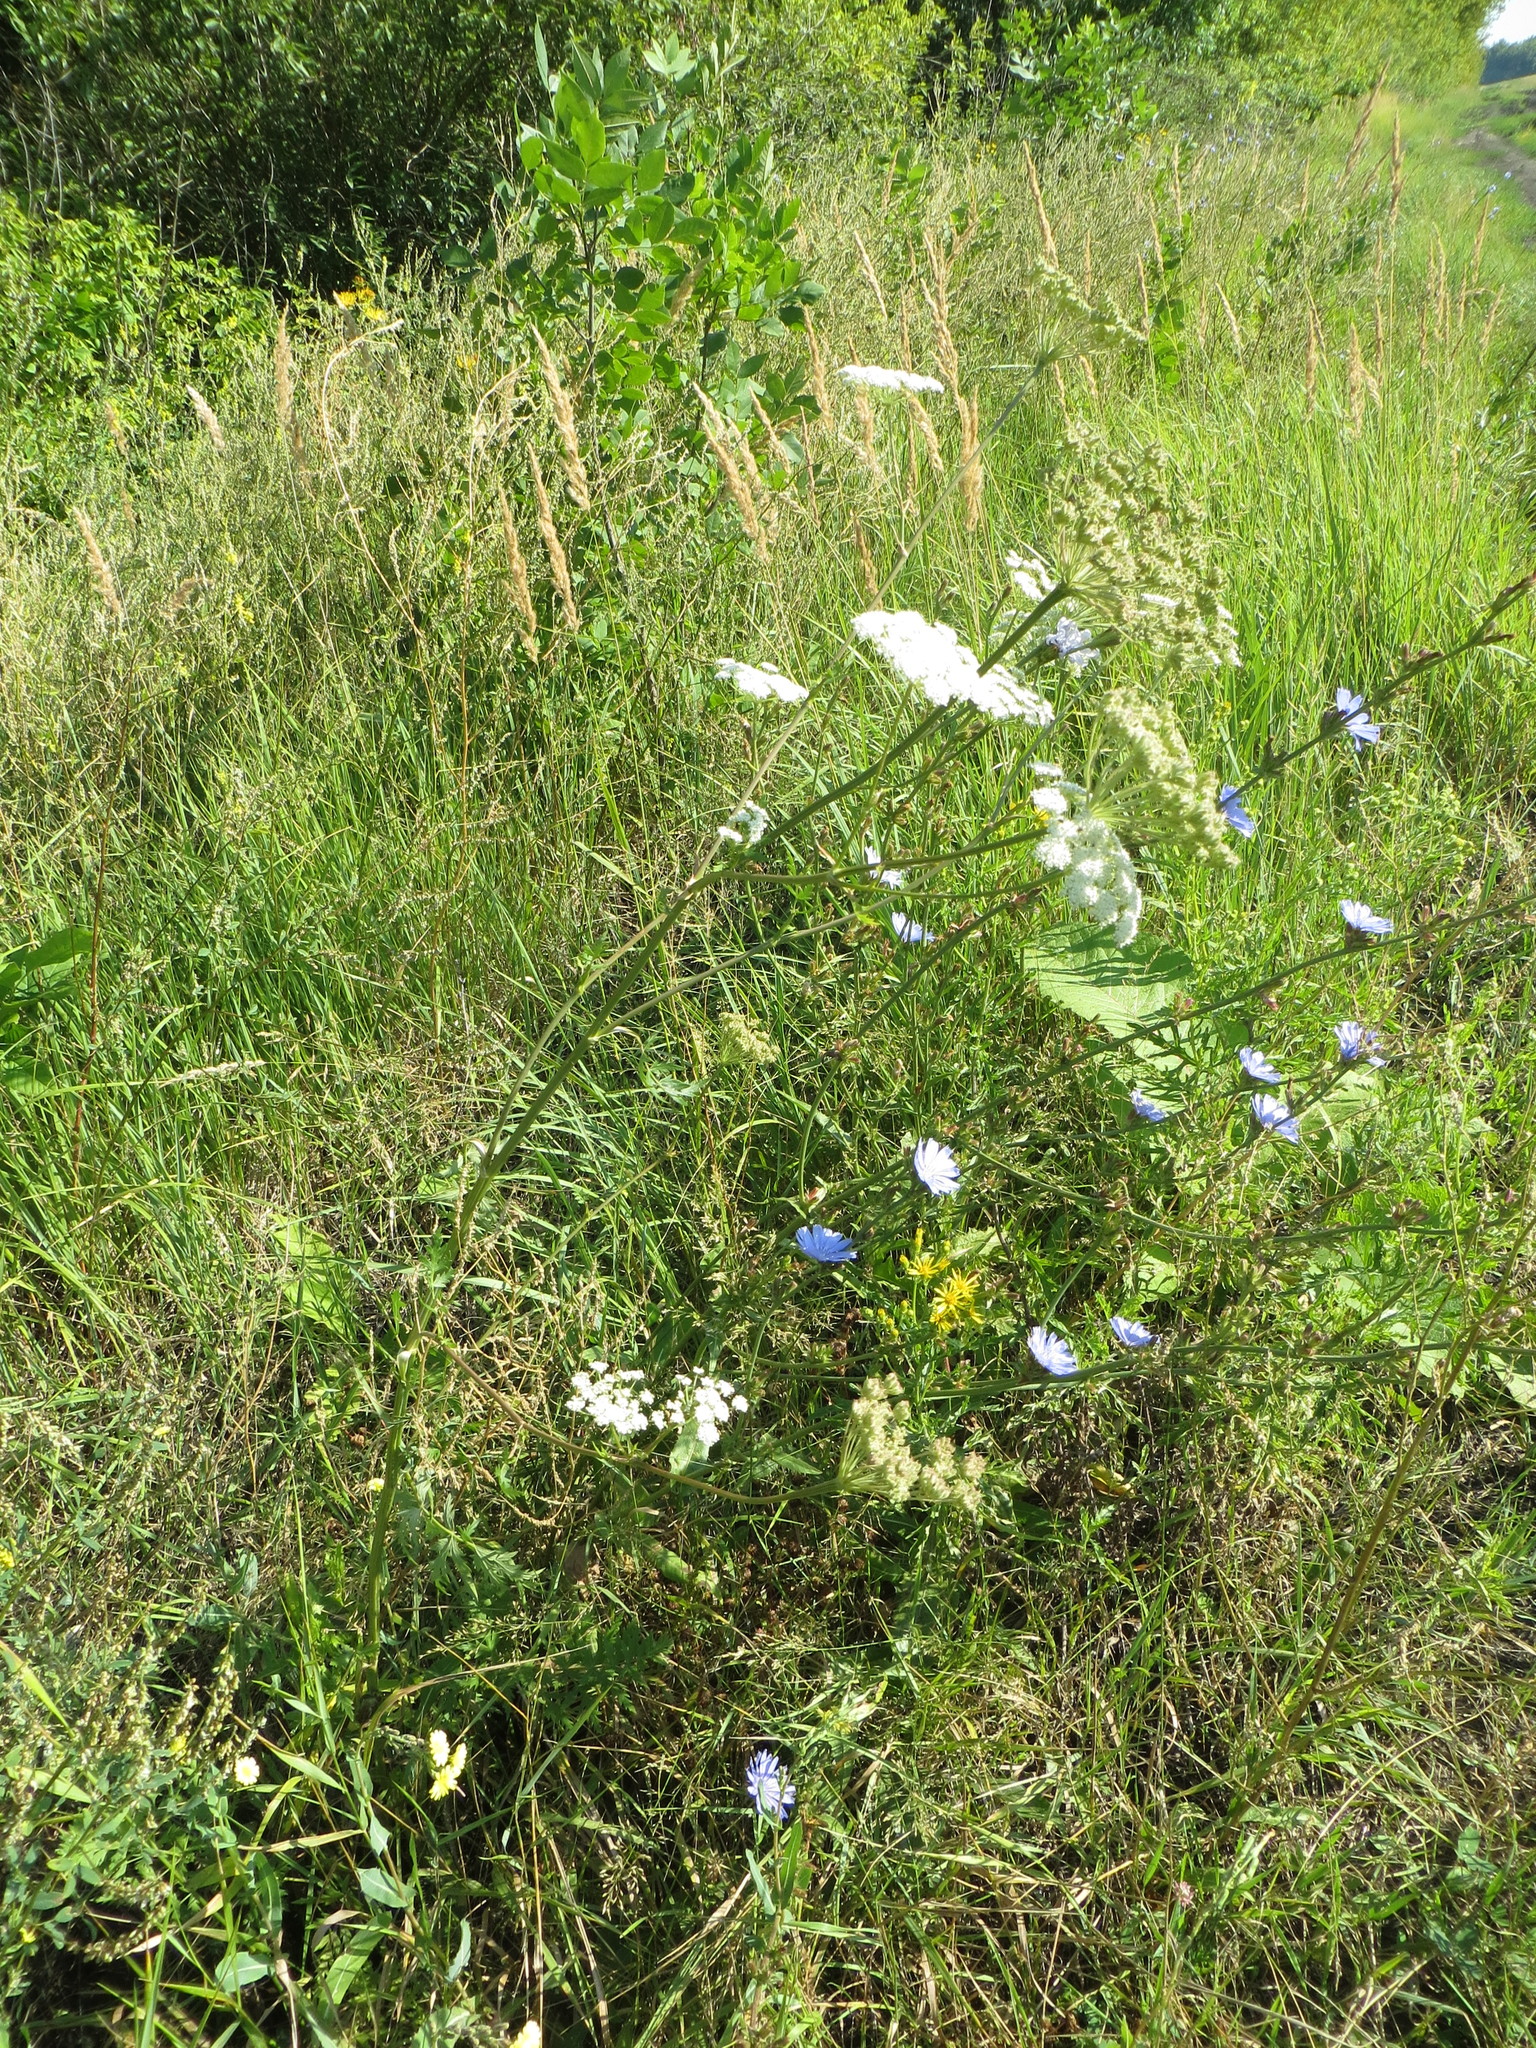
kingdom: Plantae
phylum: Tracheophyta
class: Magnoliopsida
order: Apiales
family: Apiaceae
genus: Seseli
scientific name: Seseli libanotis
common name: Mooncarrot
